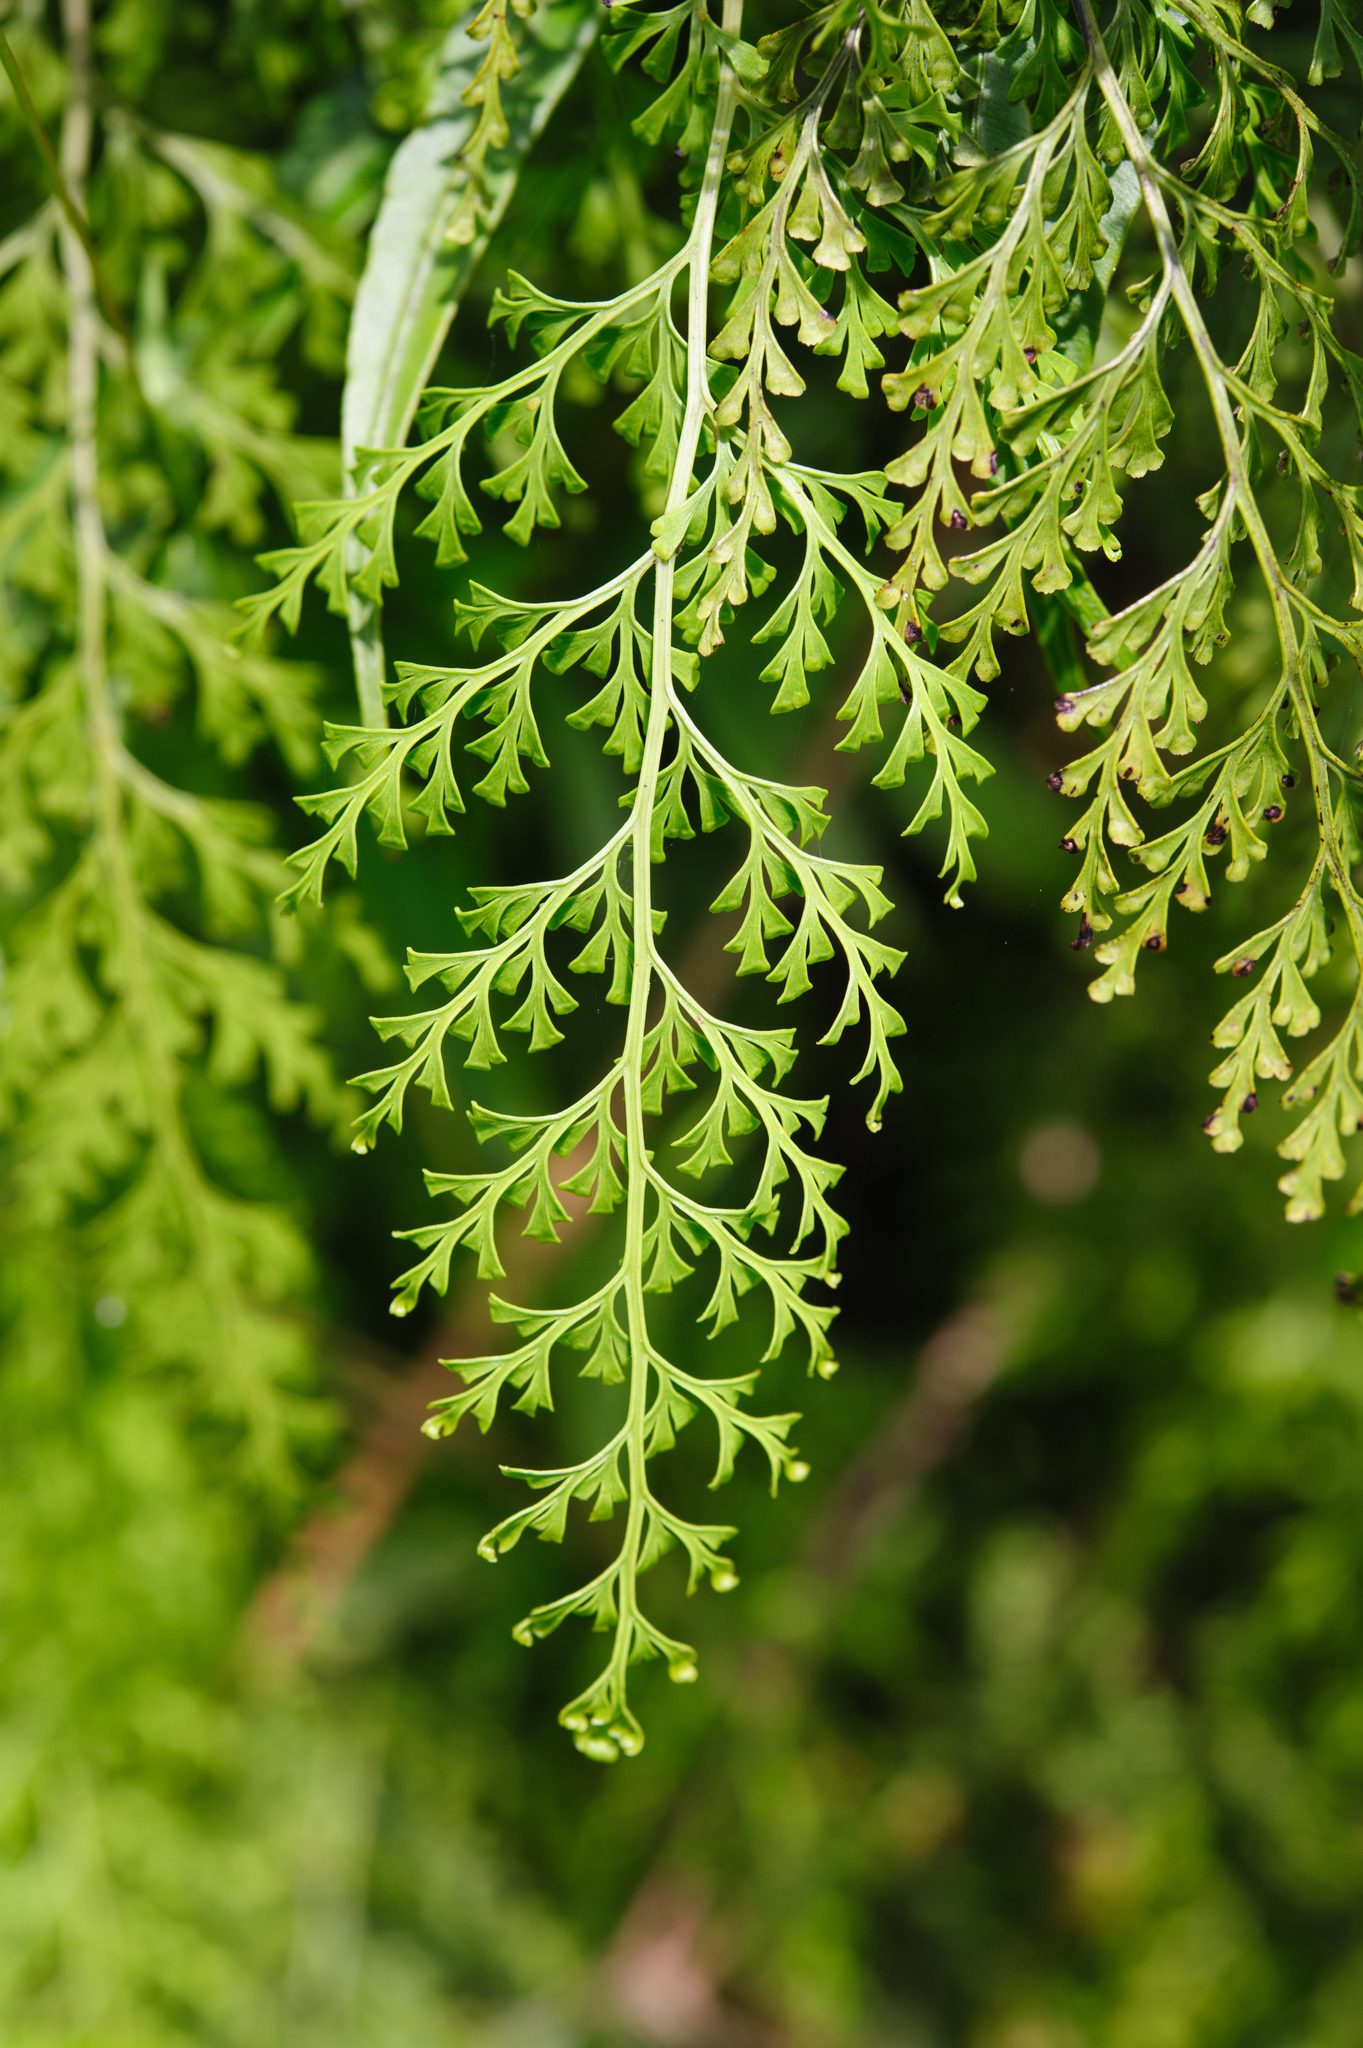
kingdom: Plantae
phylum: Tracheophyta
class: Polypodiopsida
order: Polypodiales
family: Lindsaeaceae
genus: Odontosoria
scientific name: Odontosoria chinensis
